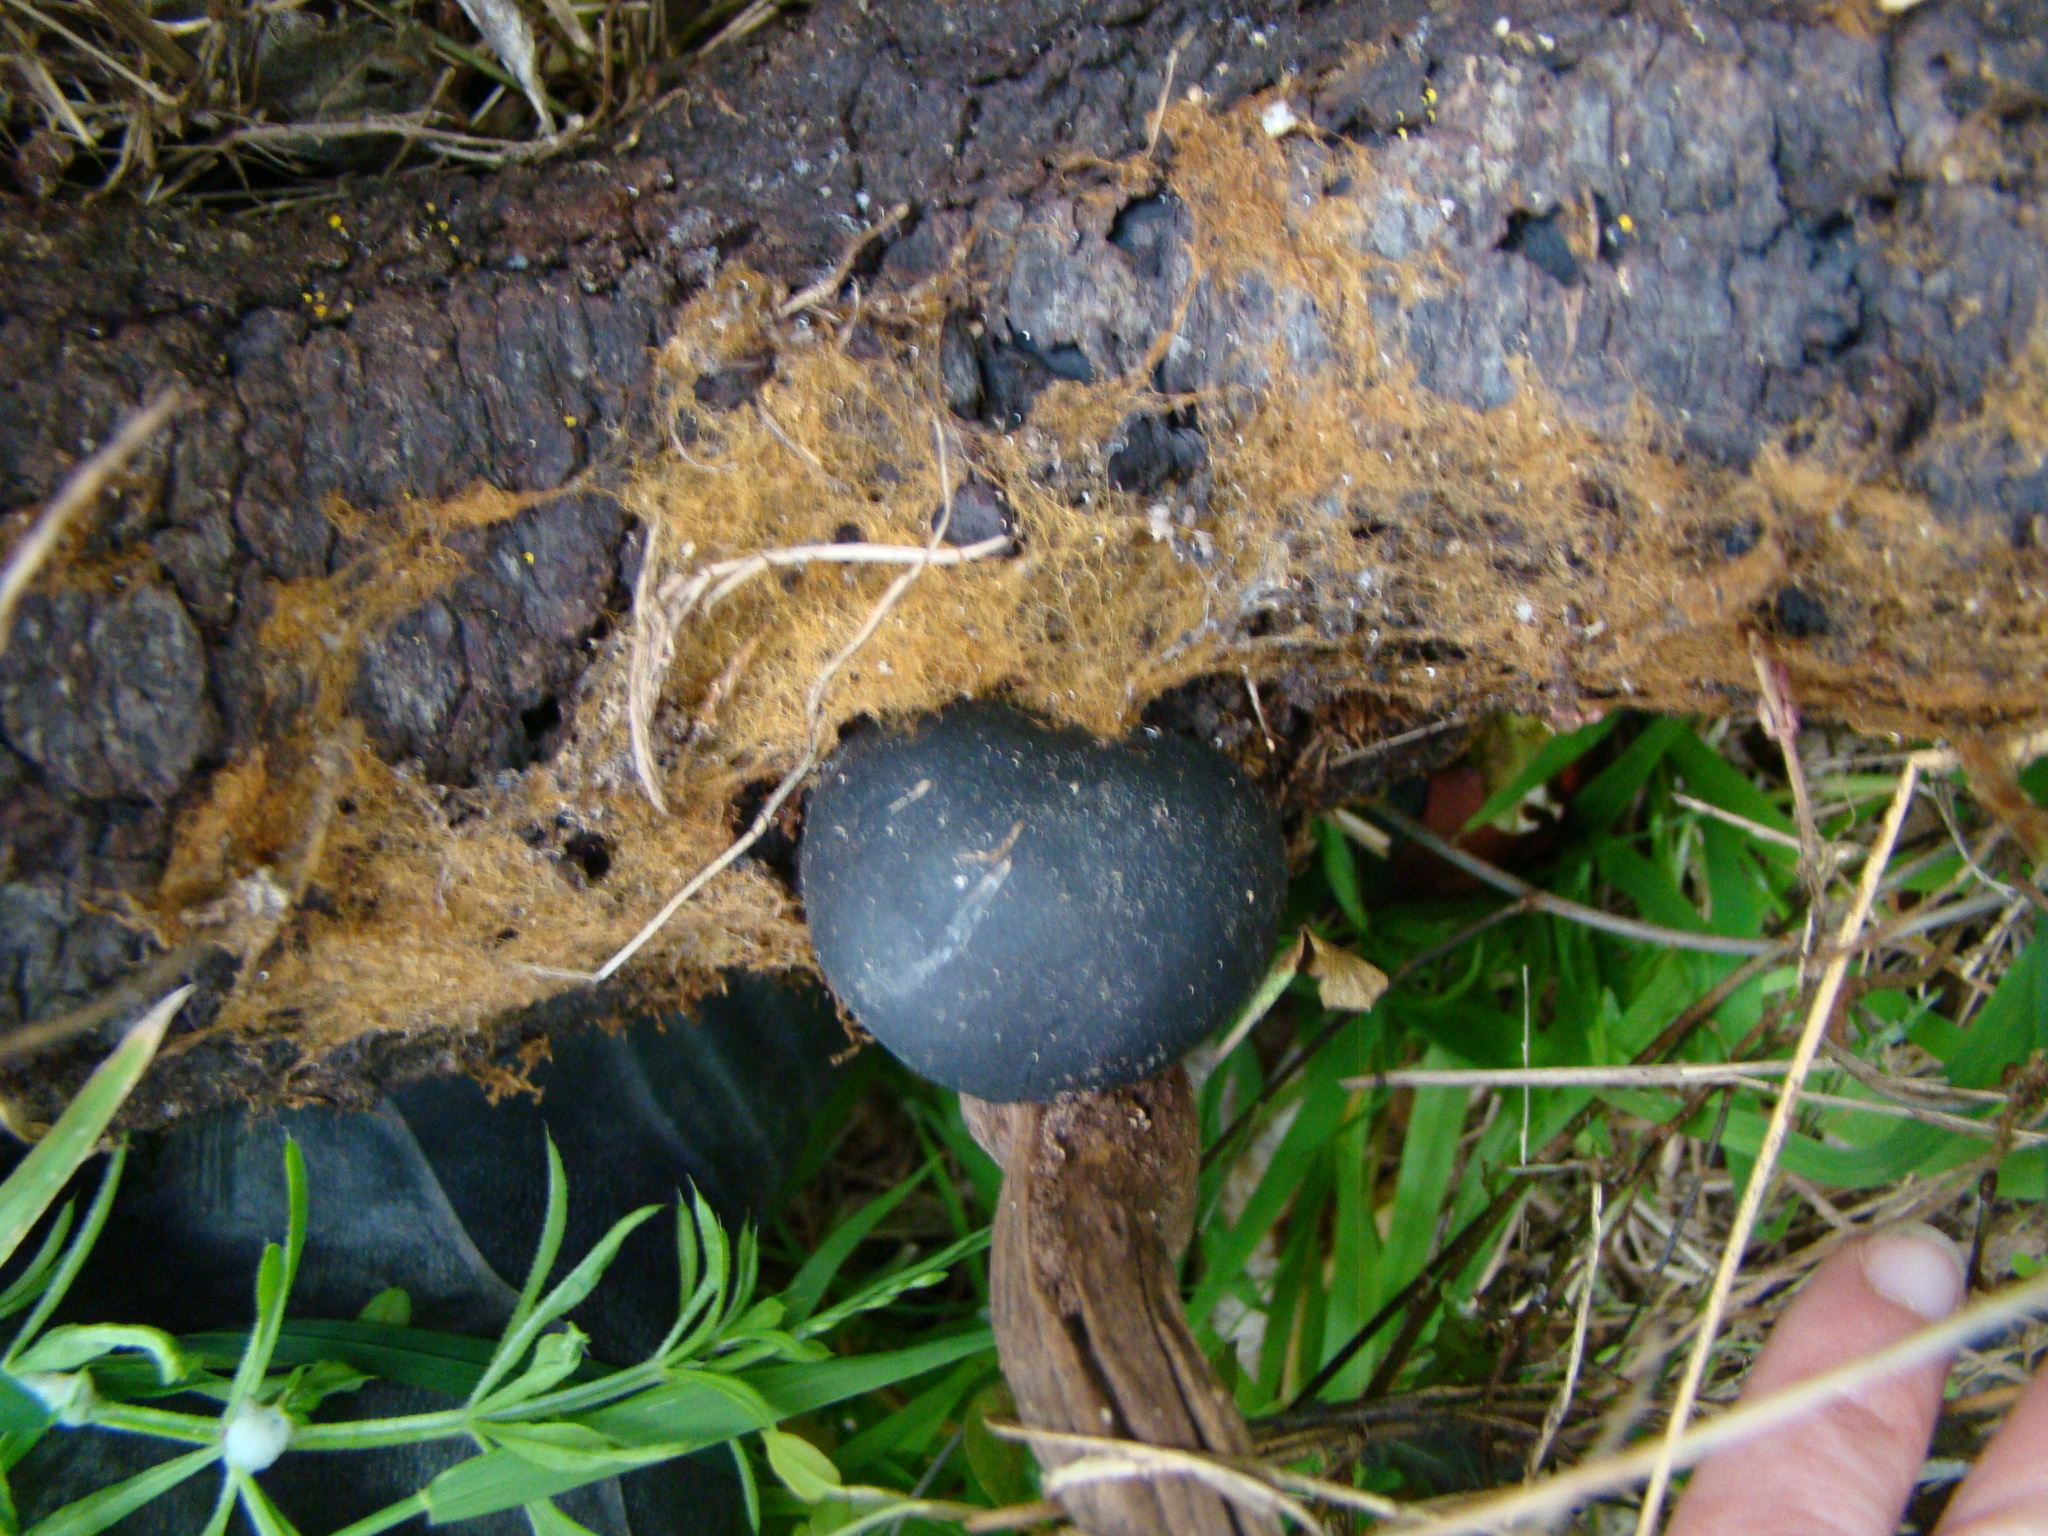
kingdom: Fungi
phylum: Ascomycota
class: Sordariomycetes
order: Xylariales
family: Hypoxylaceae
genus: Daldinia
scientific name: Daldinia
